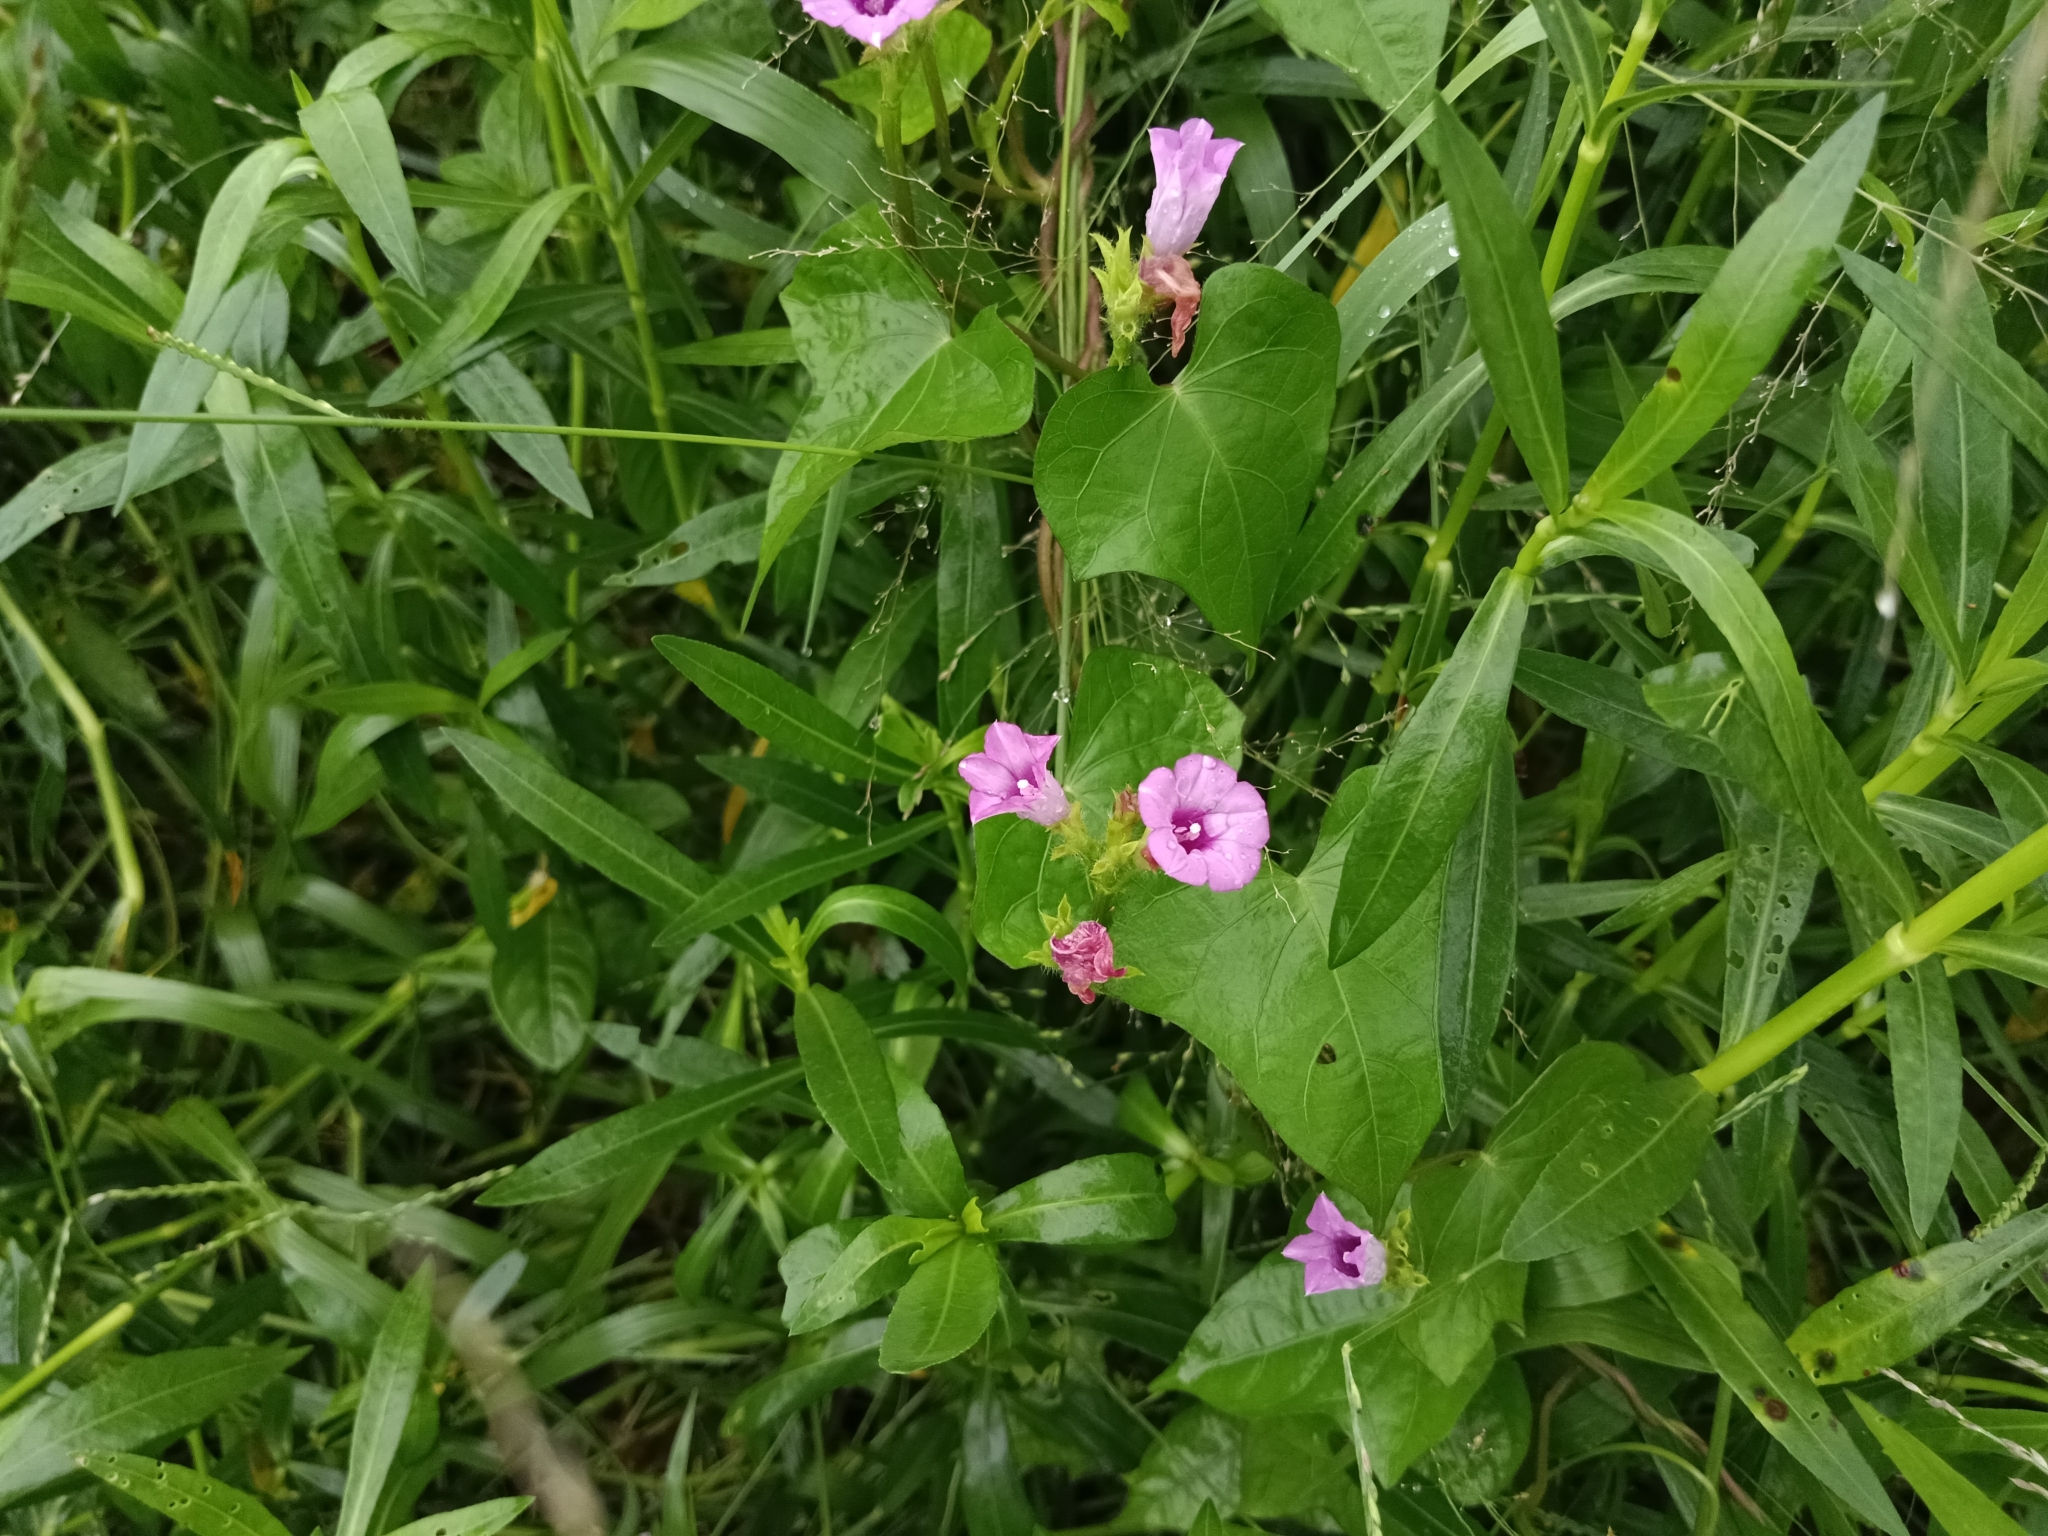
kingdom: Plantae
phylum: Tracheophyta
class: Magnoliopsida
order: Solanales
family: Convolvulaceae
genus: Ipomoea
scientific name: Ipomoea triloba
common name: Little-bell
